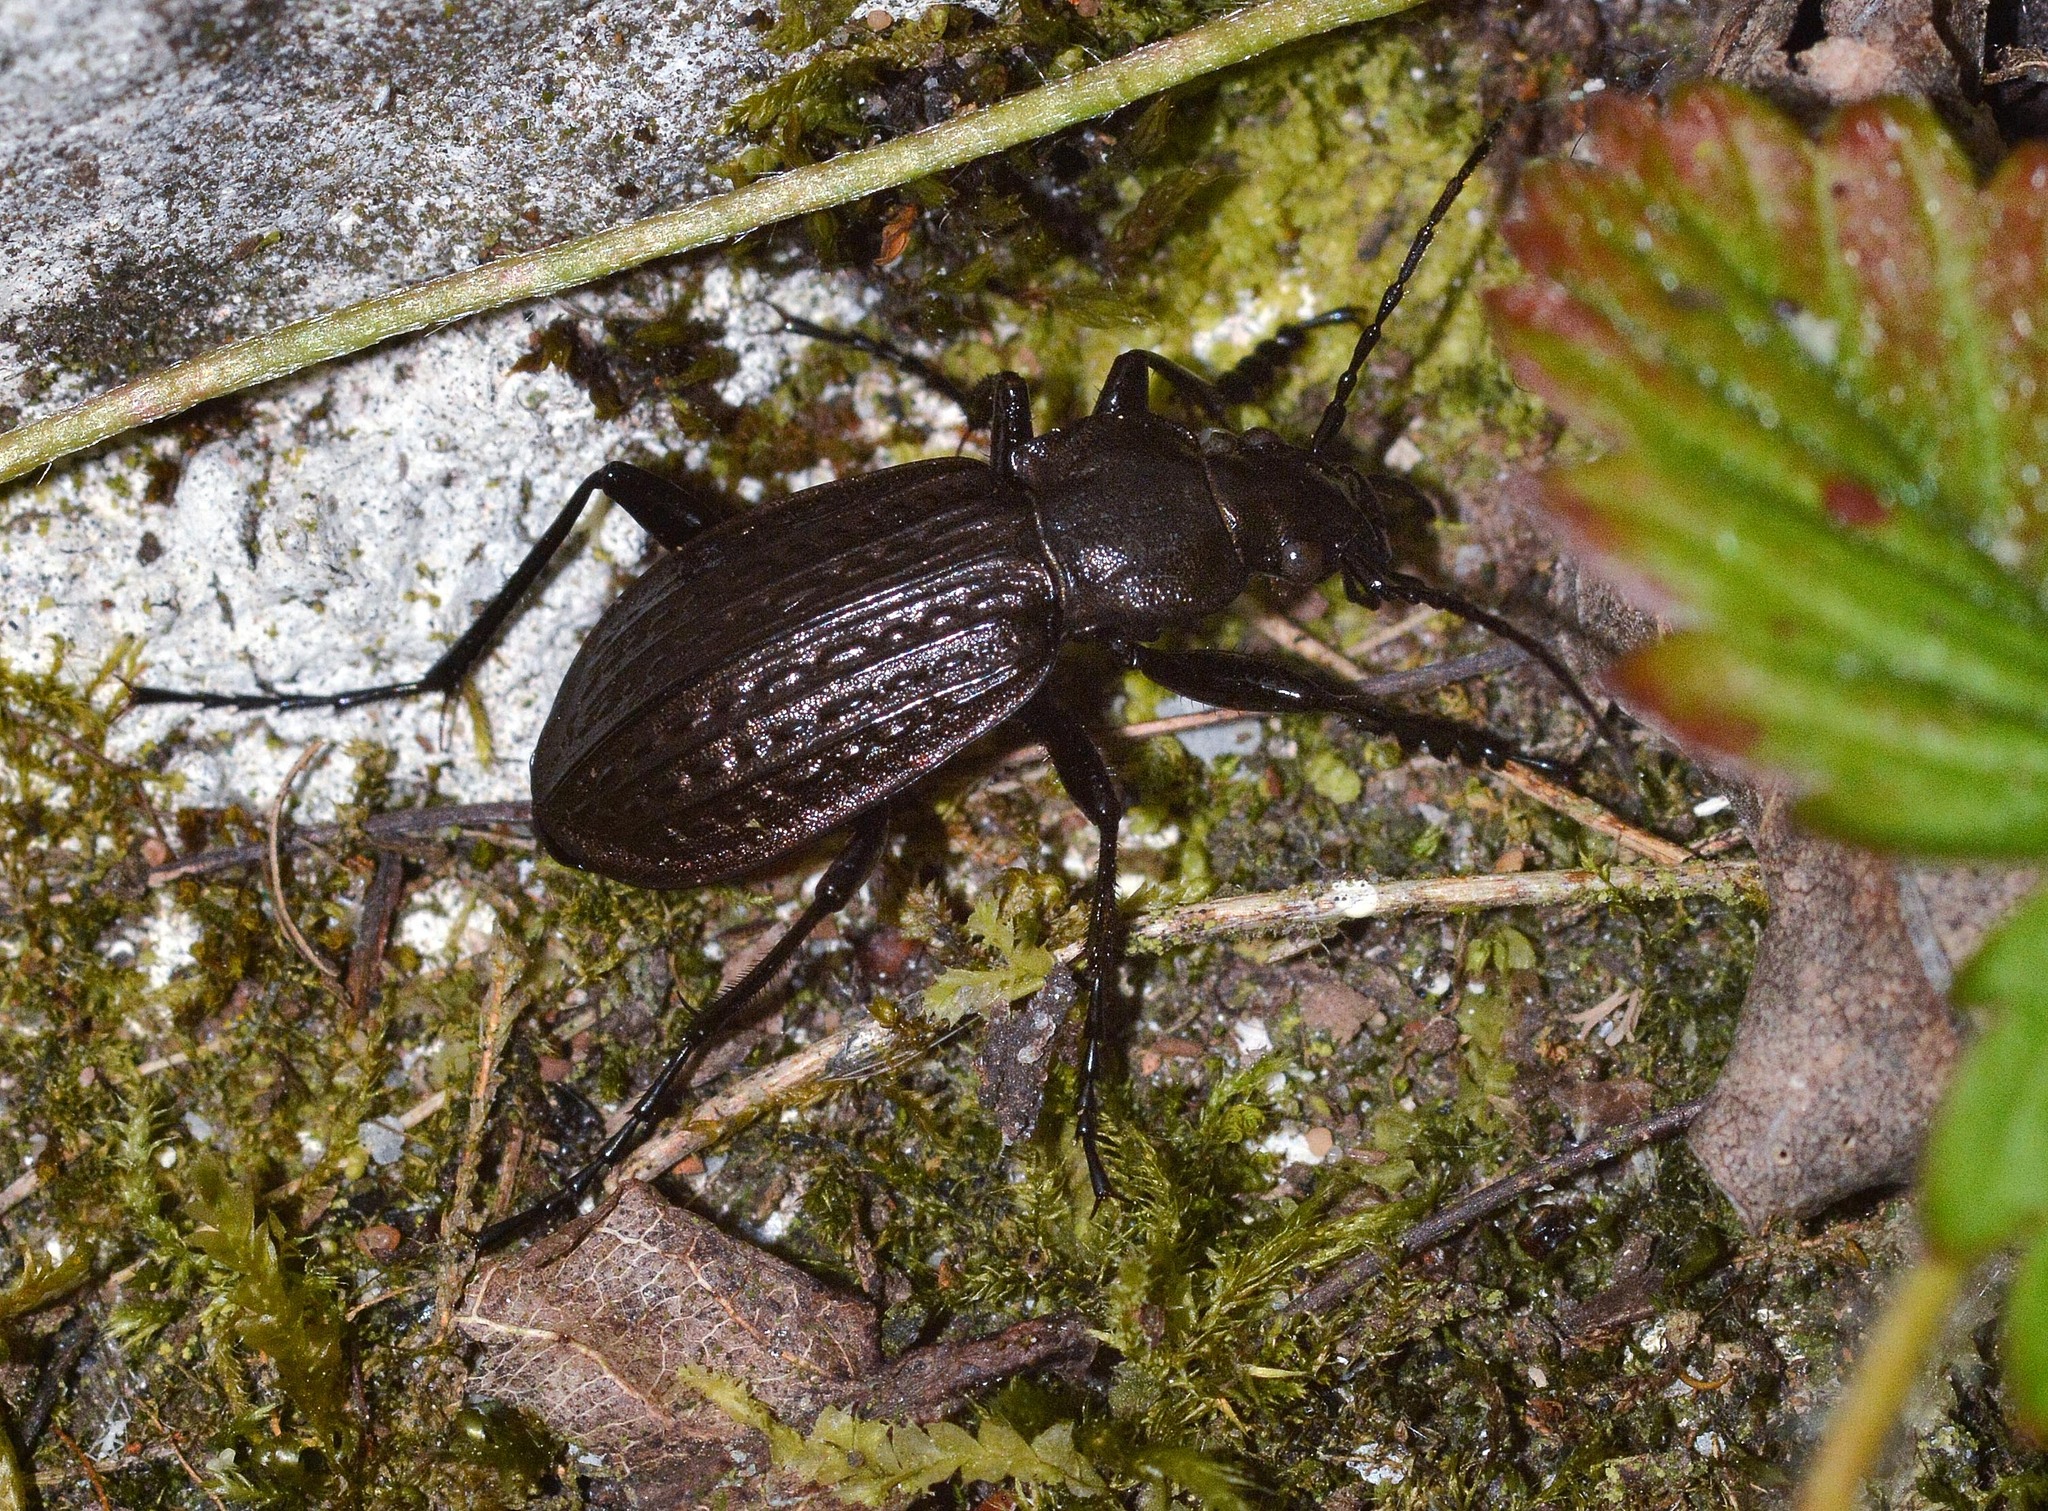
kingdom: Animalia
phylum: Arthropoda
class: Insecta
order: Coleoptera
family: Carabidae
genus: Carabus
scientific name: Carabus granulatus
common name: Granulate ground beetle
